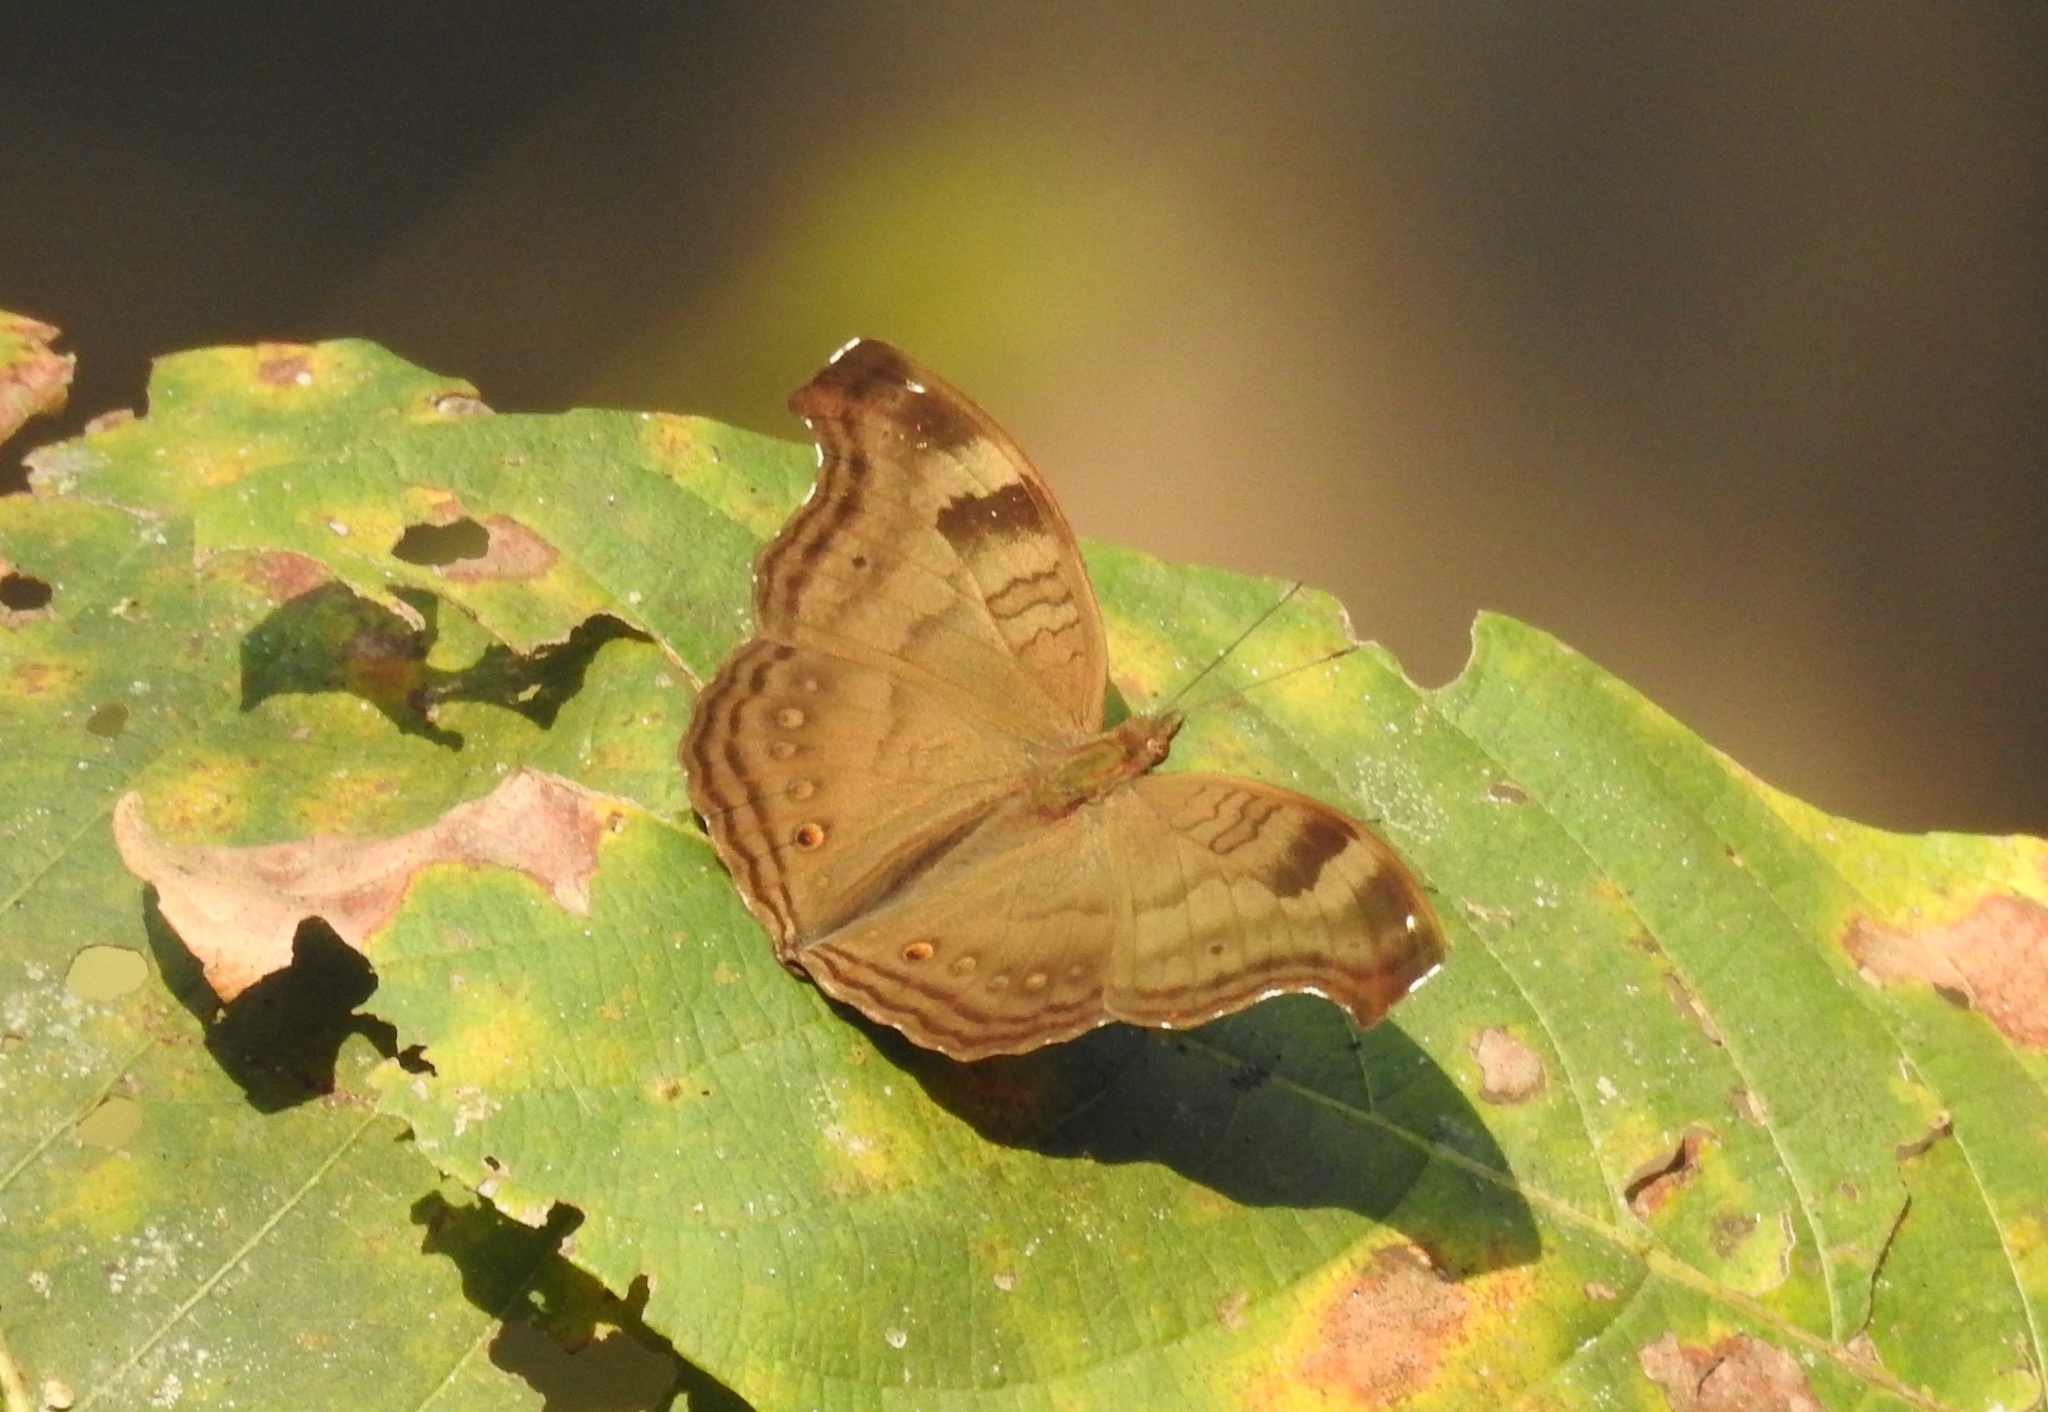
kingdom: Animalia
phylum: Arthropoda
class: Insecta
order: Lepidoptera
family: Nymphalidae
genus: Junonia
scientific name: Junonia iphita
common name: Chocolate pansy
